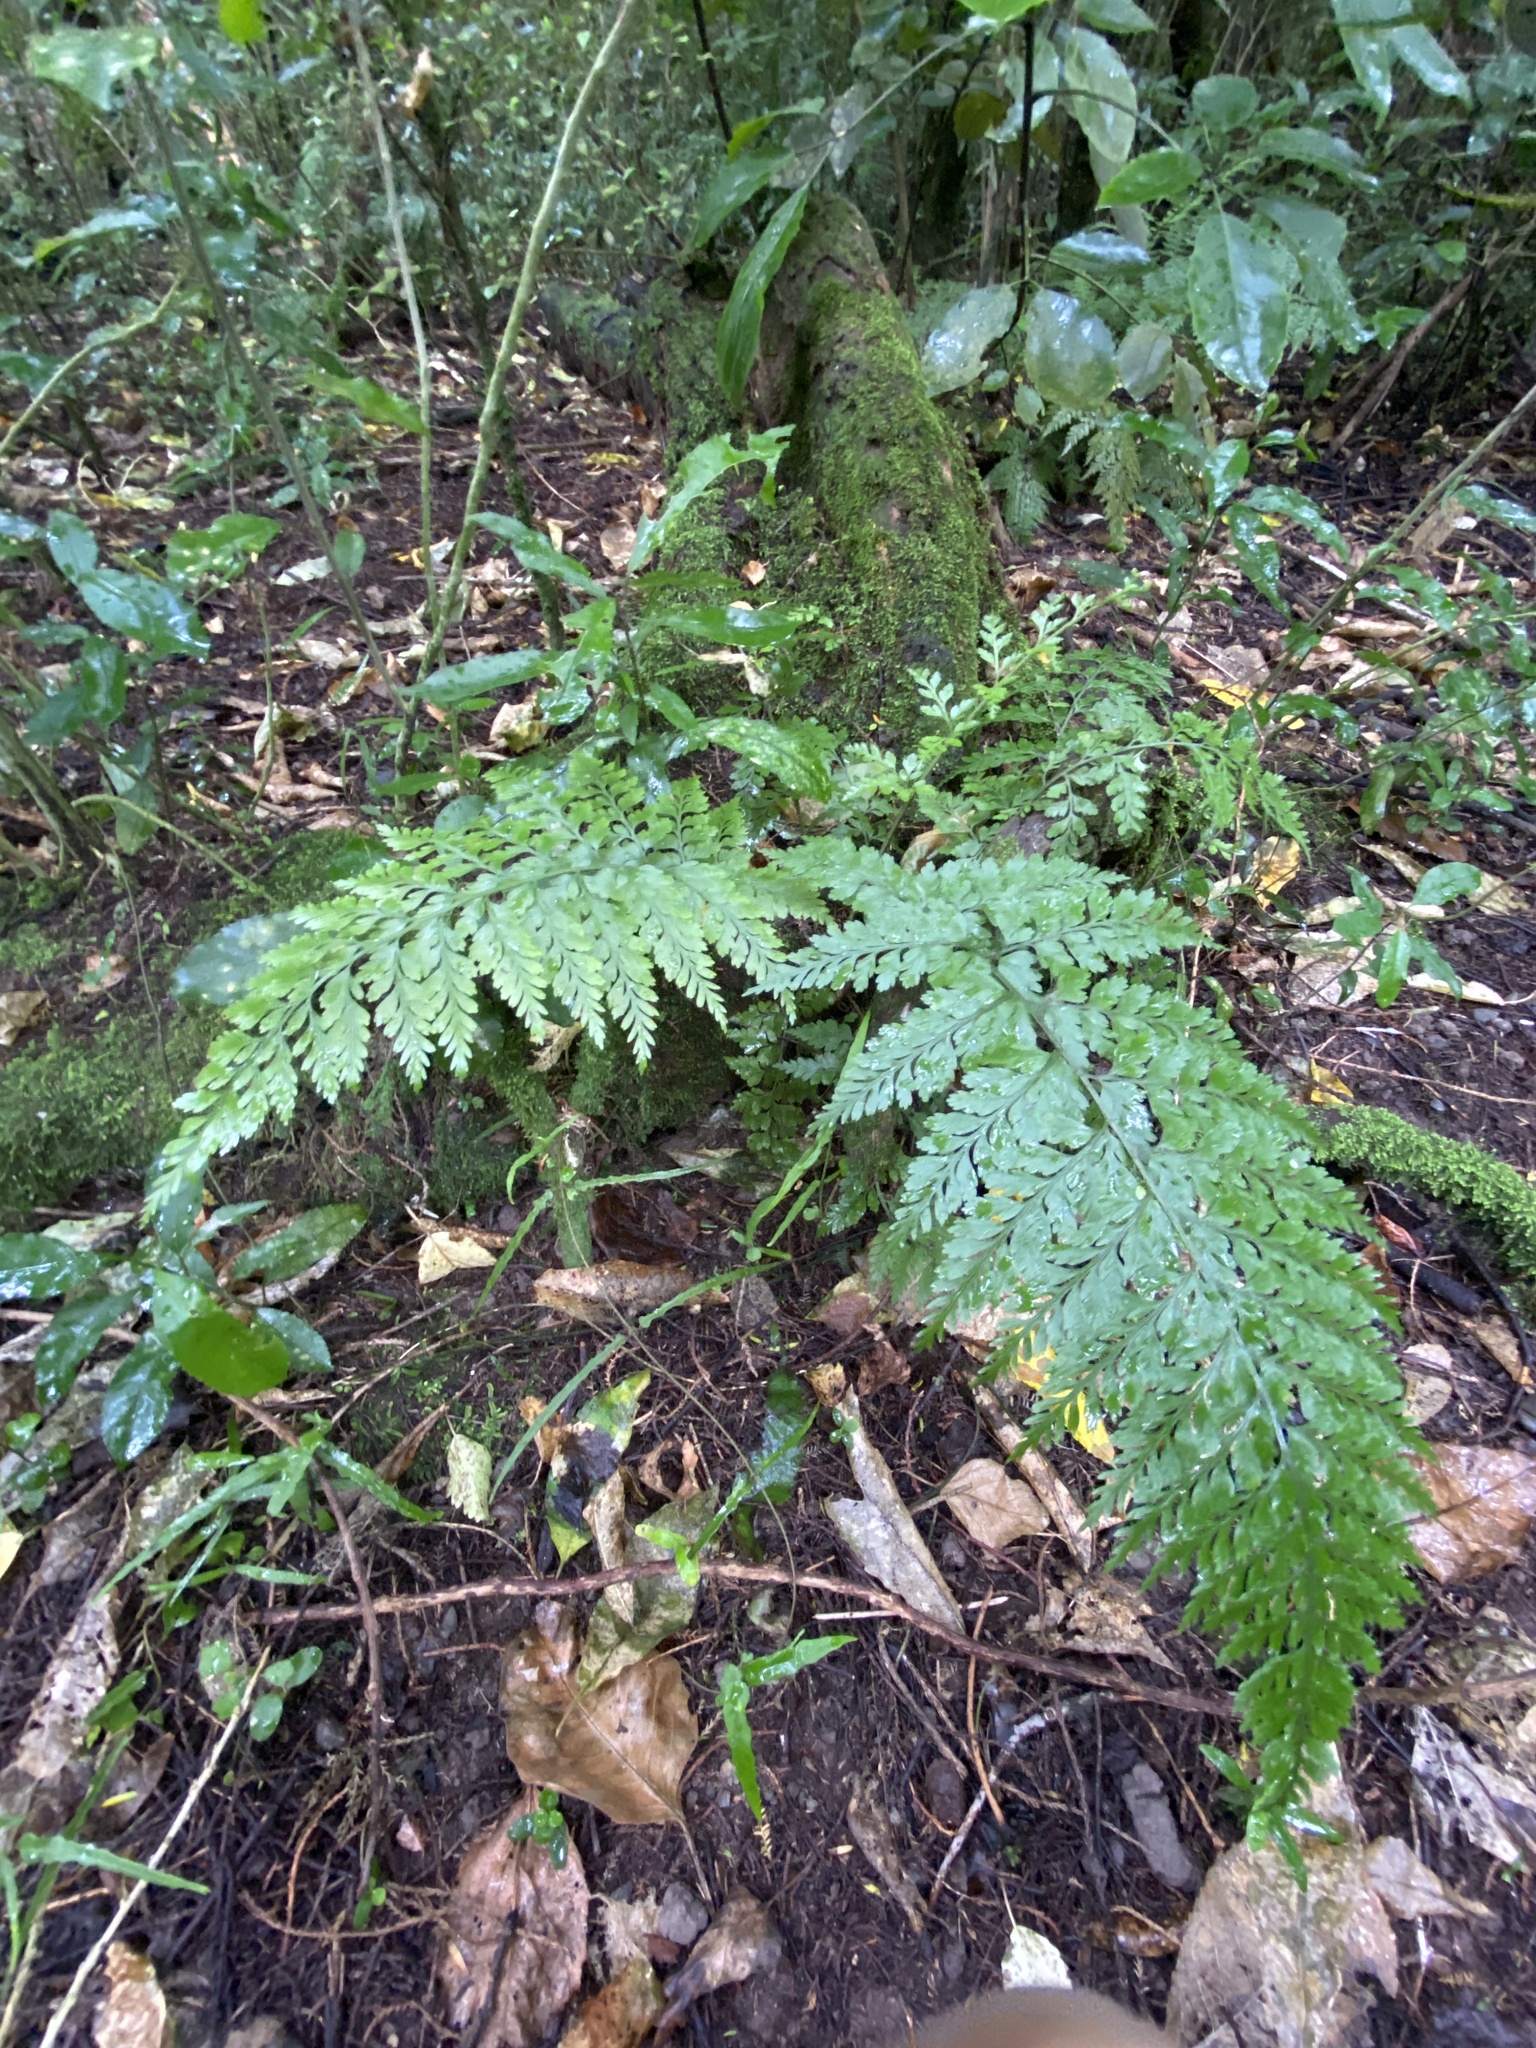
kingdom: Plantae
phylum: Tracheophyta
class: Polypodiopsida
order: Polypodiales
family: Aspleniaceae
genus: Asplenium
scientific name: Asplenium
